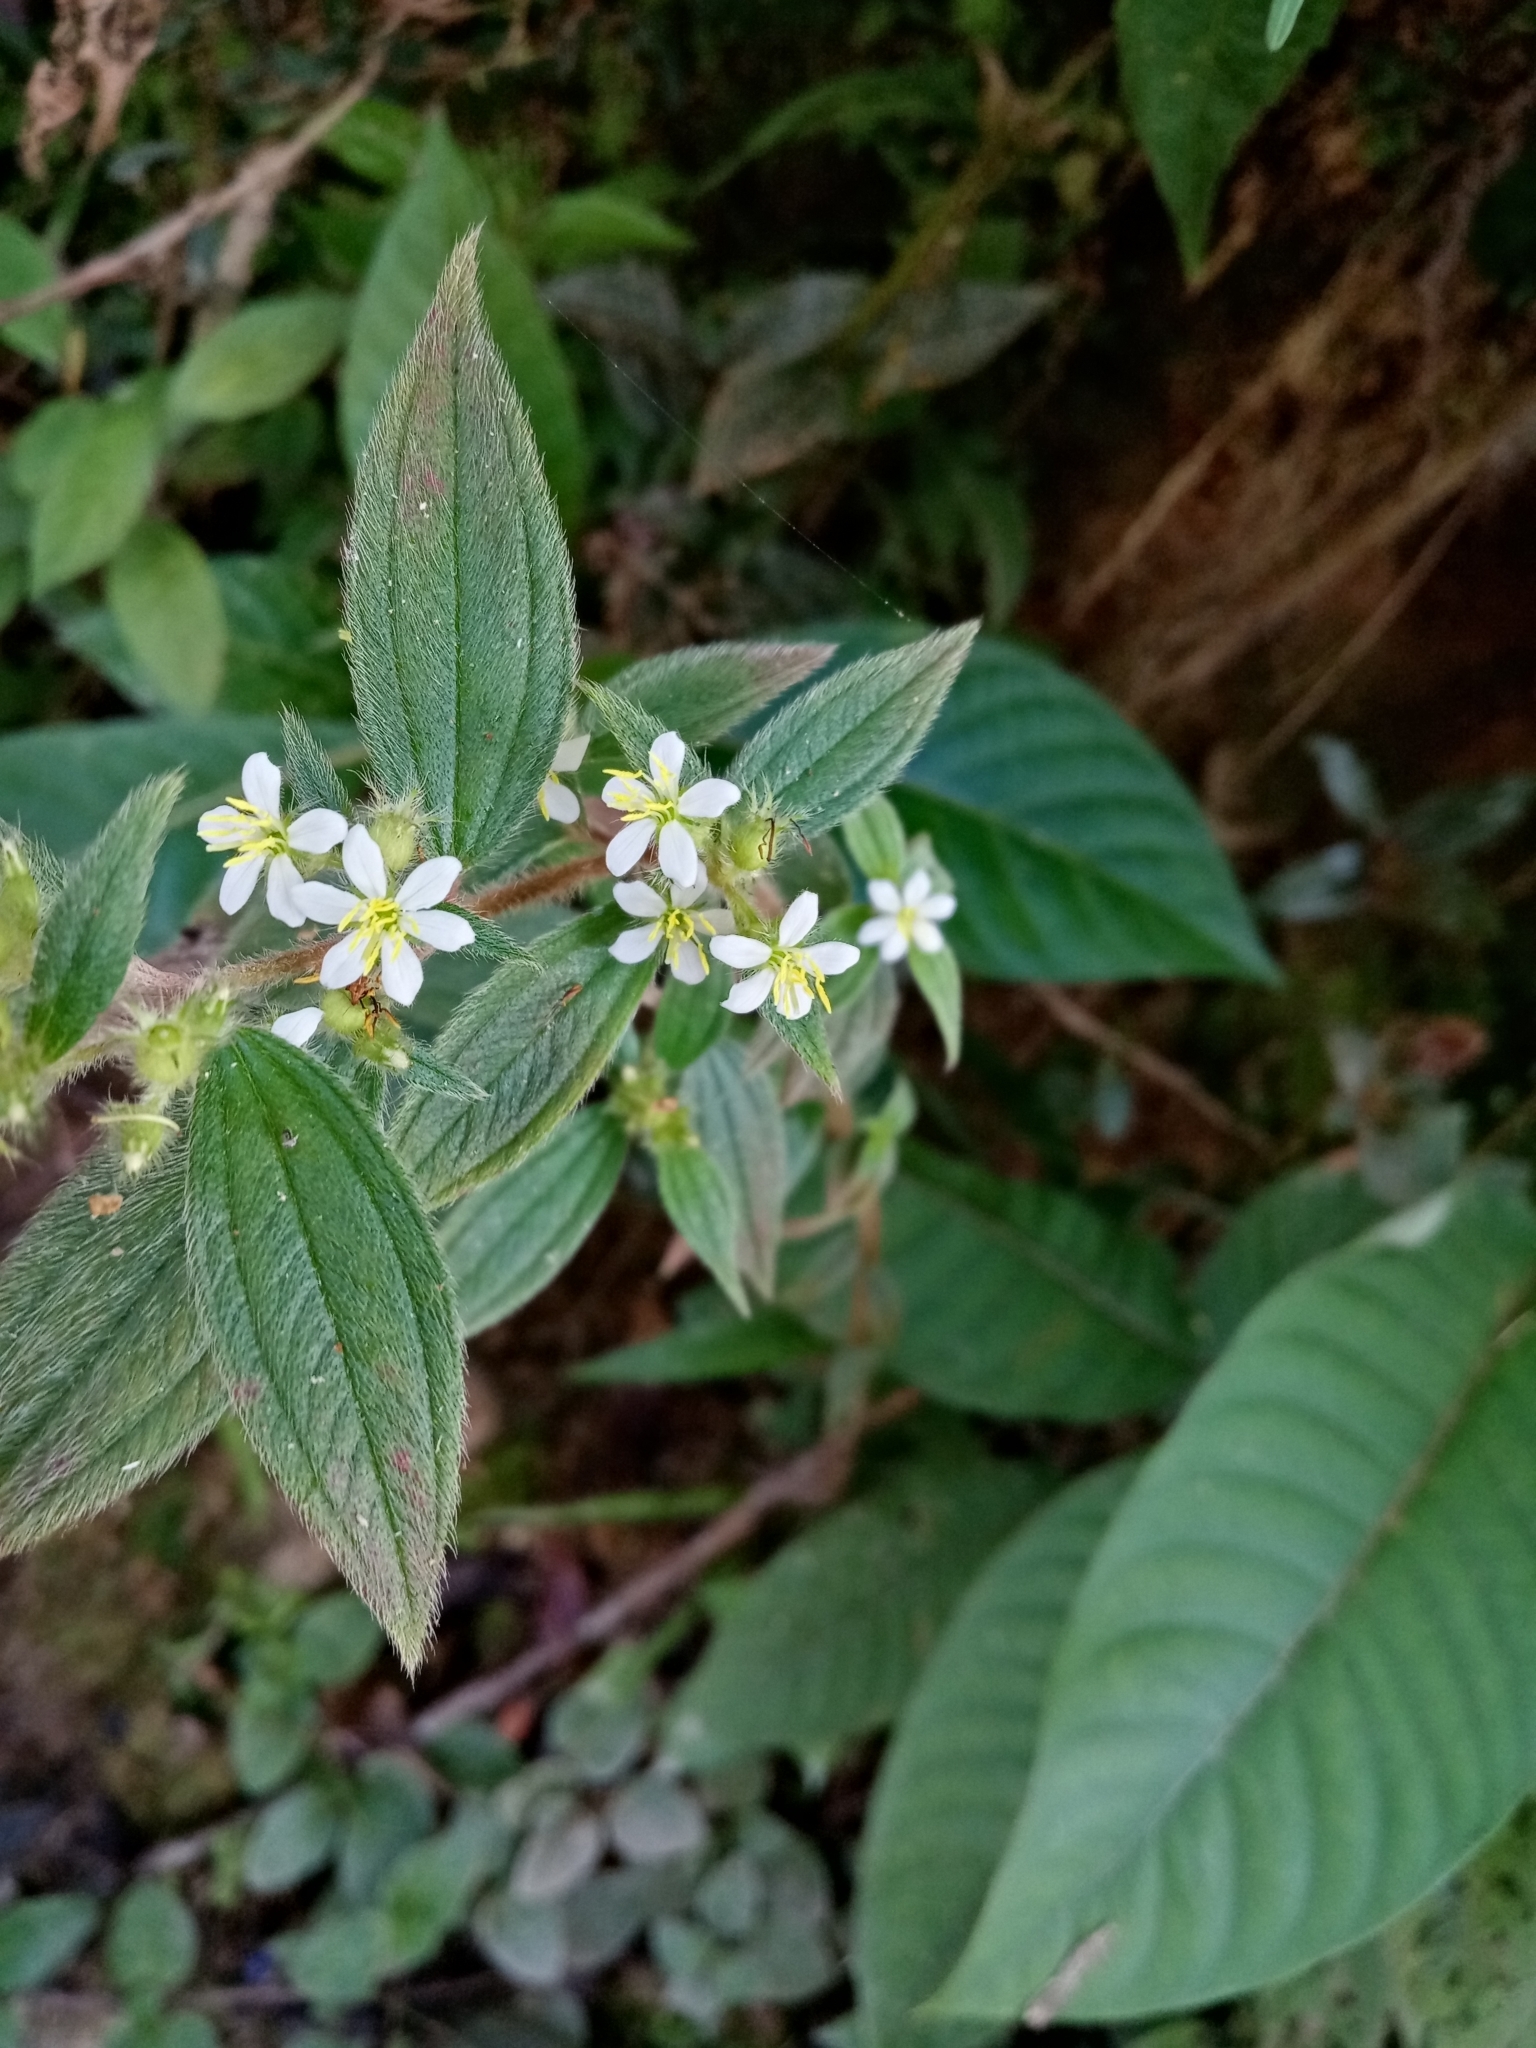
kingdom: Plantae
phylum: Tracheophyta
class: Magnoliopsida
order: Myrtales
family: Melastomataceae
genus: Chaetogastra
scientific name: Chaetogastra longifolia
